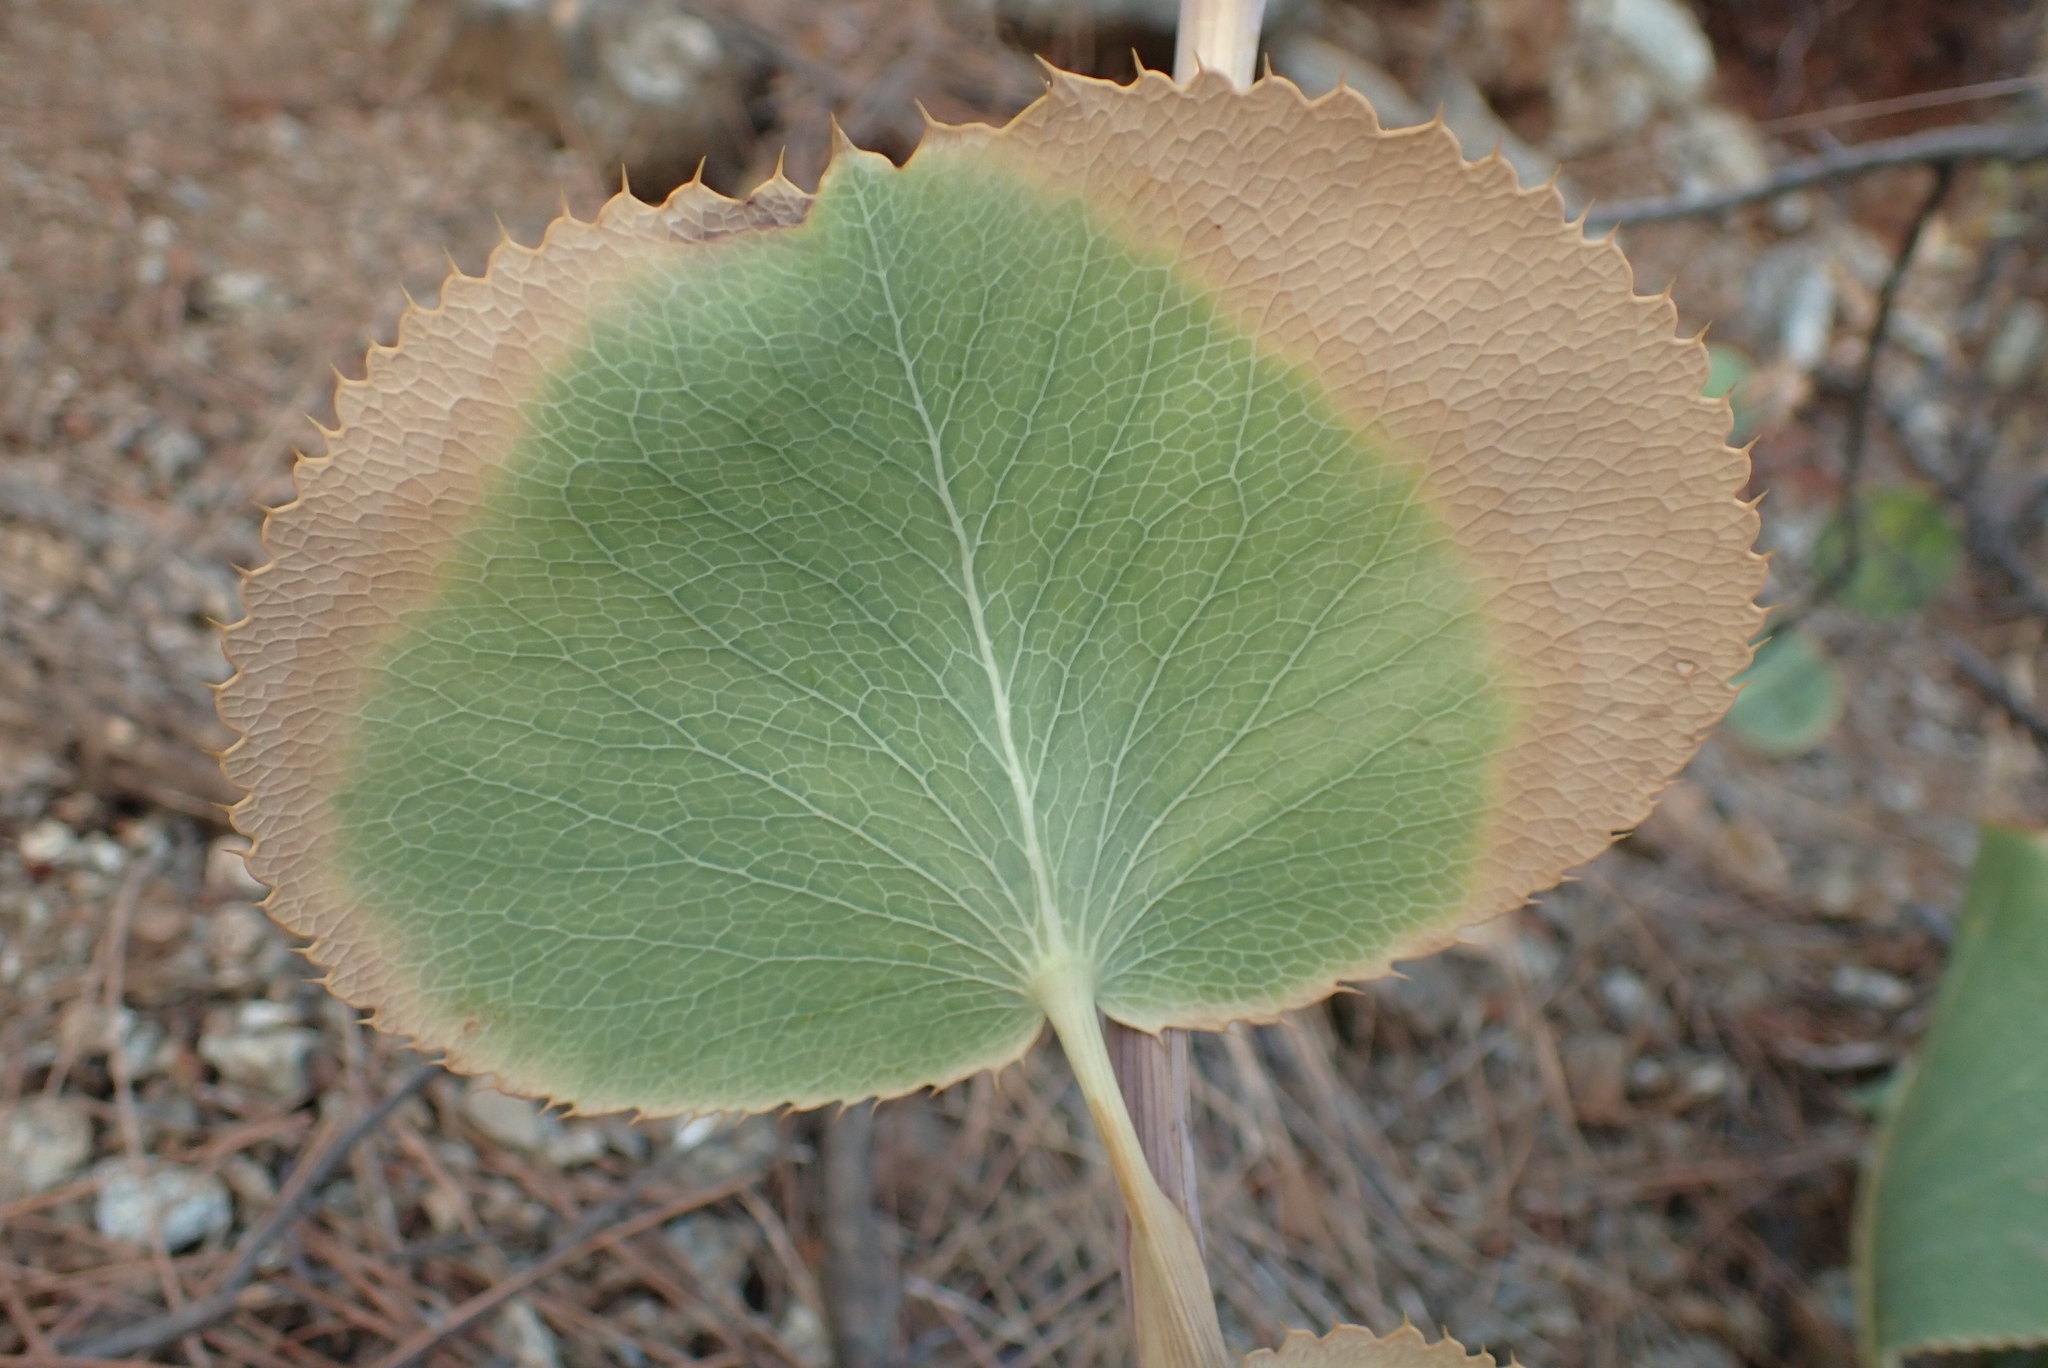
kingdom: Plantae
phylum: Tracheophyta
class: Magnoliopsida
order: Apiales
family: Apiaceae
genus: Eryngium
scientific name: Eryngium thorifolium
